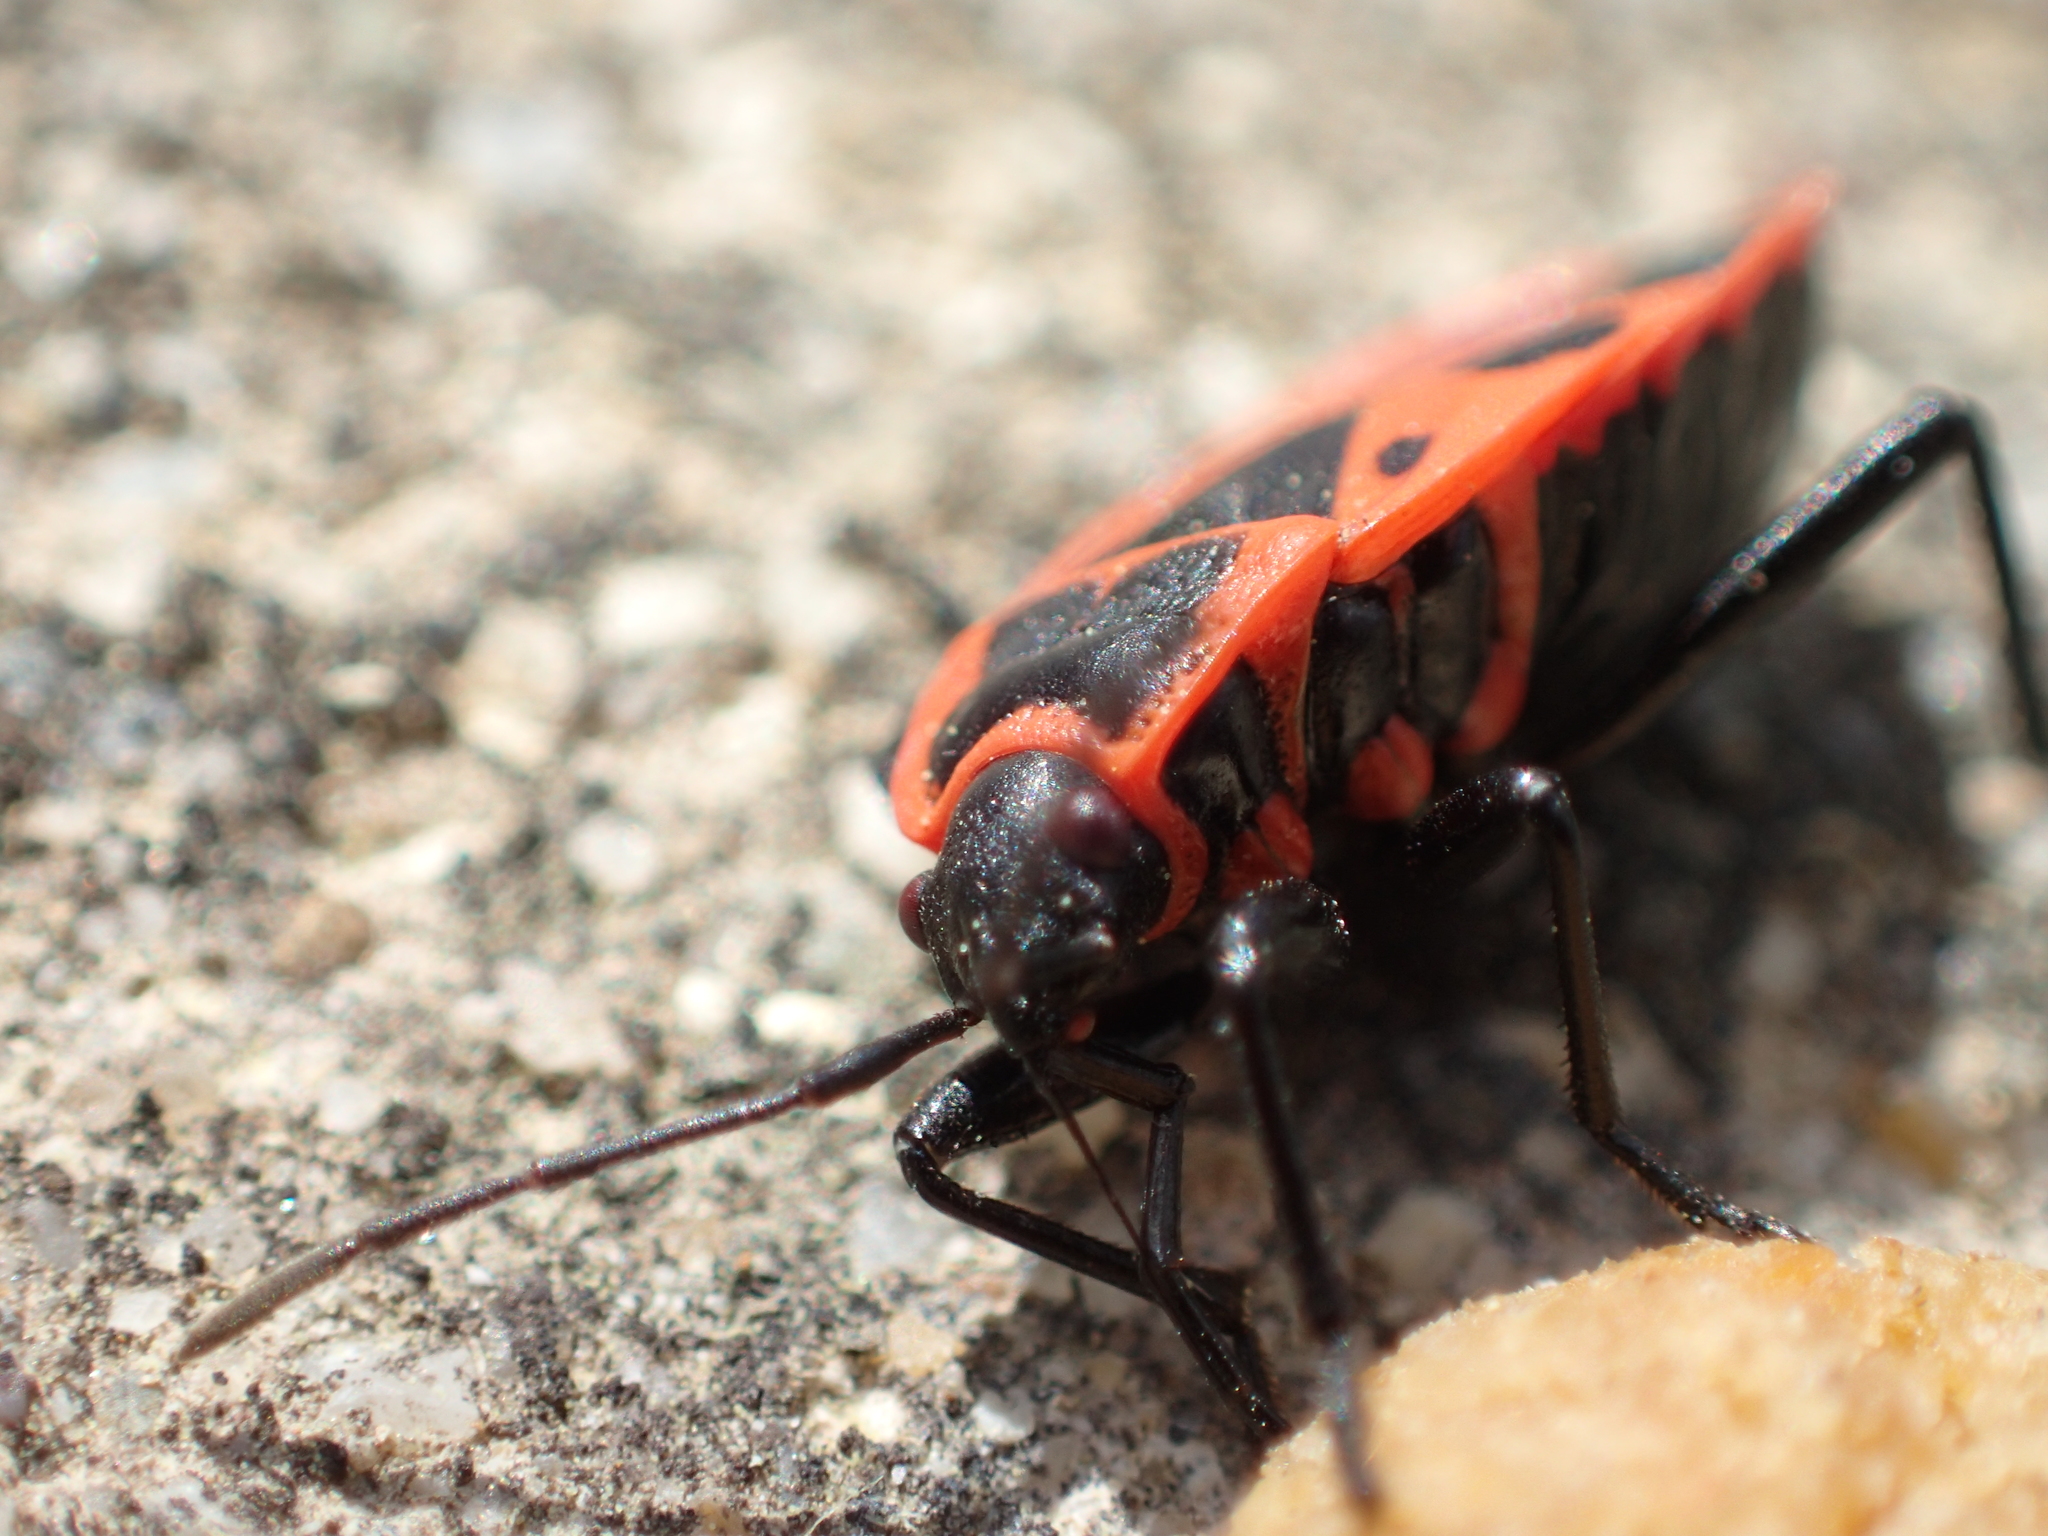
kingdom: Animalia
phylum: Arthropoda
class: Insecta
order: Hemiptera
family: Pyrrhocoridae
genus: Pyrrhocoris
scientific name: Pyrrhocoris apterus
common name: Firebug
